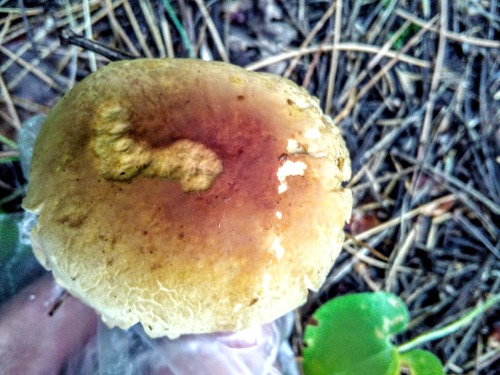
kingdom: Fungi
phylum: Basidiomycota
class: Agaricomycetes
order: Boletales
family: Boletaceae
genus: Boletus
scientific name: Boletus edulis
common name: Cep
